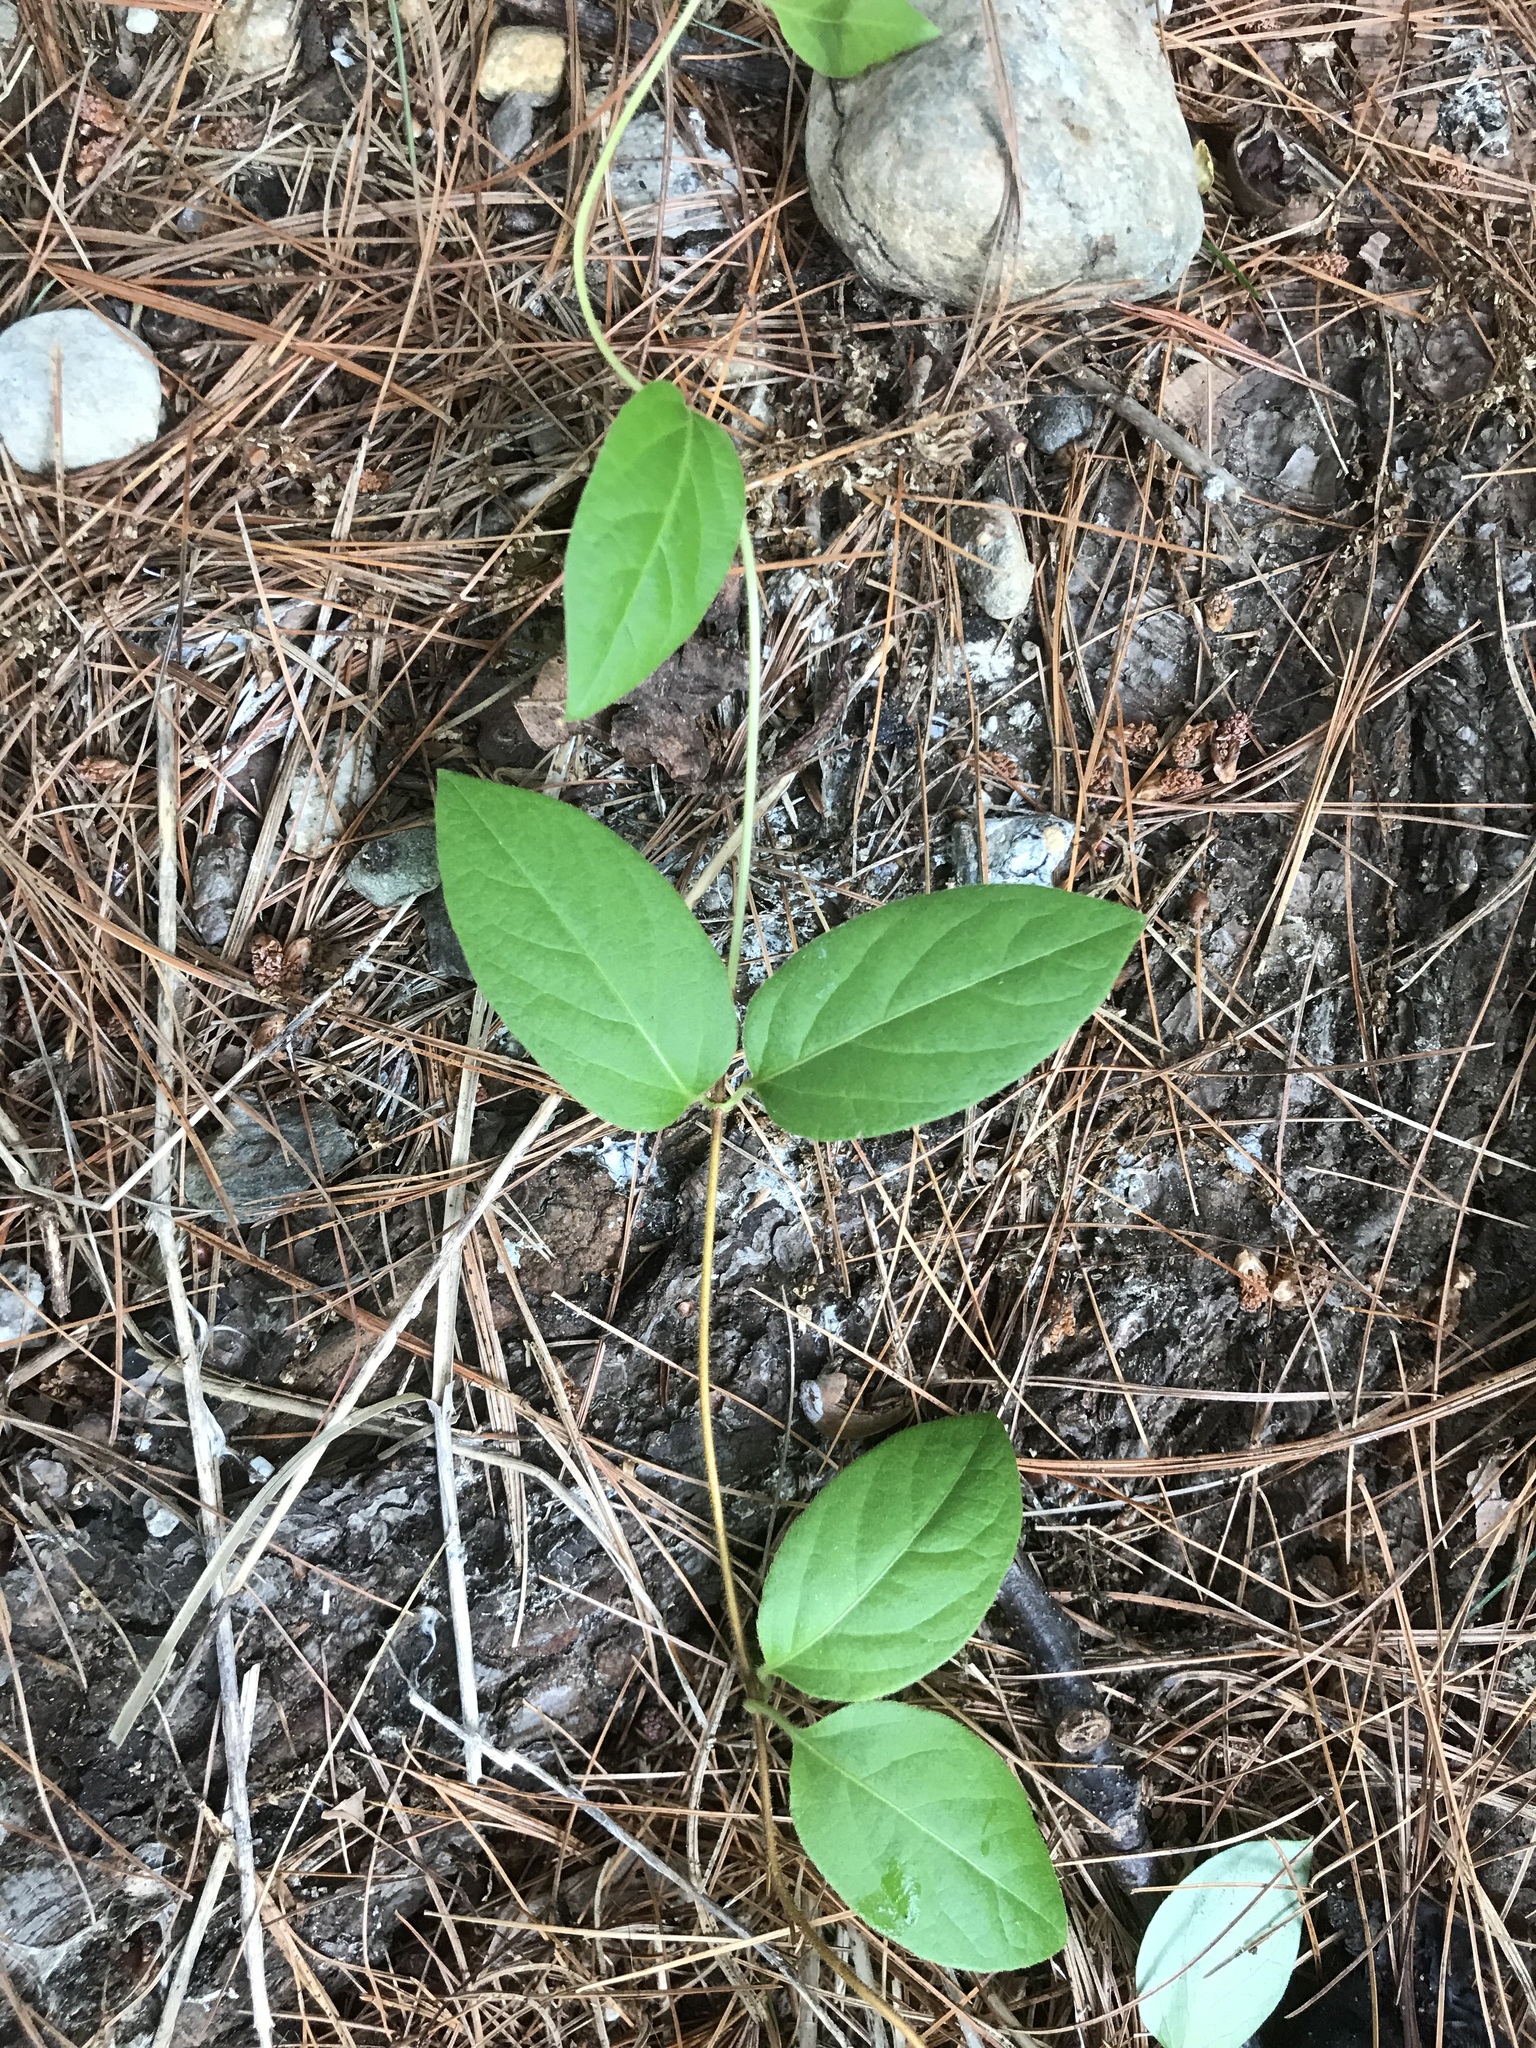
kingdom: Plantae
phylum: Tracheophyta
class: Magnoliopsida
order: Dipsacales
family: Caprifoliaceae
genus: Lonicera
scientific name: Lonicera japonica
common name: Japanese honeysuckle
